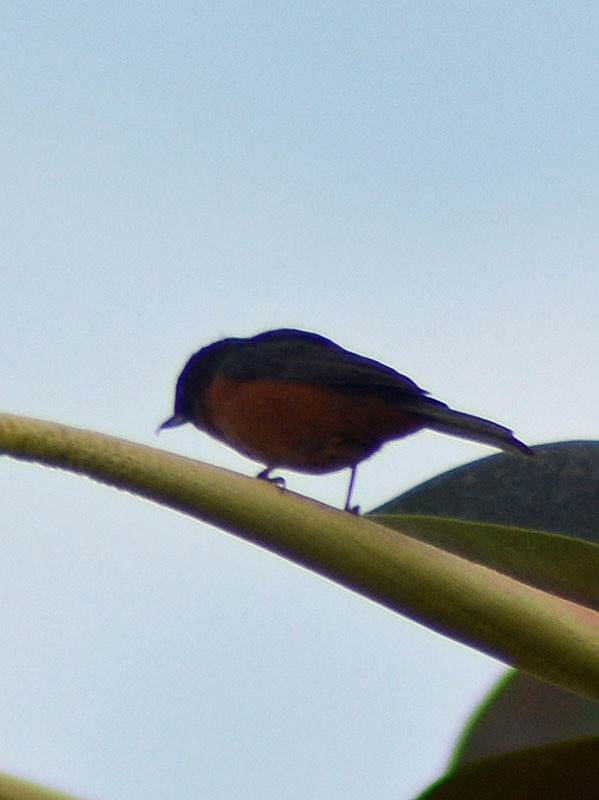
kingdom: Animalia
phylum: Chordata
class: Aves
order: Passeriformes
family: Thraupidae
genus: Diglossa
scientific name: Diglossa baritula
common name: Cinnamon-bellied flowerpiercer
